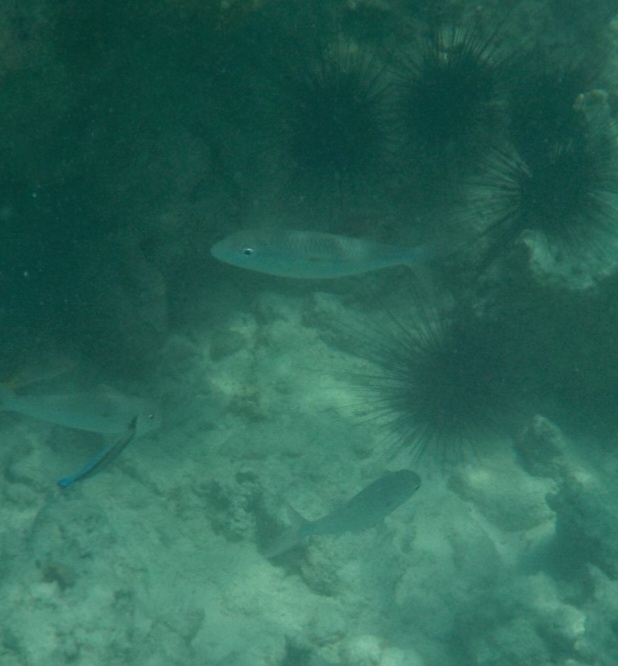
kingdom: Animalia
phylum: Chordata
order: Perciformes
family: Mullidae
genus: Mulloidichthys
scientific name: Mulloidichthys flavolineatus
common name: Yellowstripe goatfish
